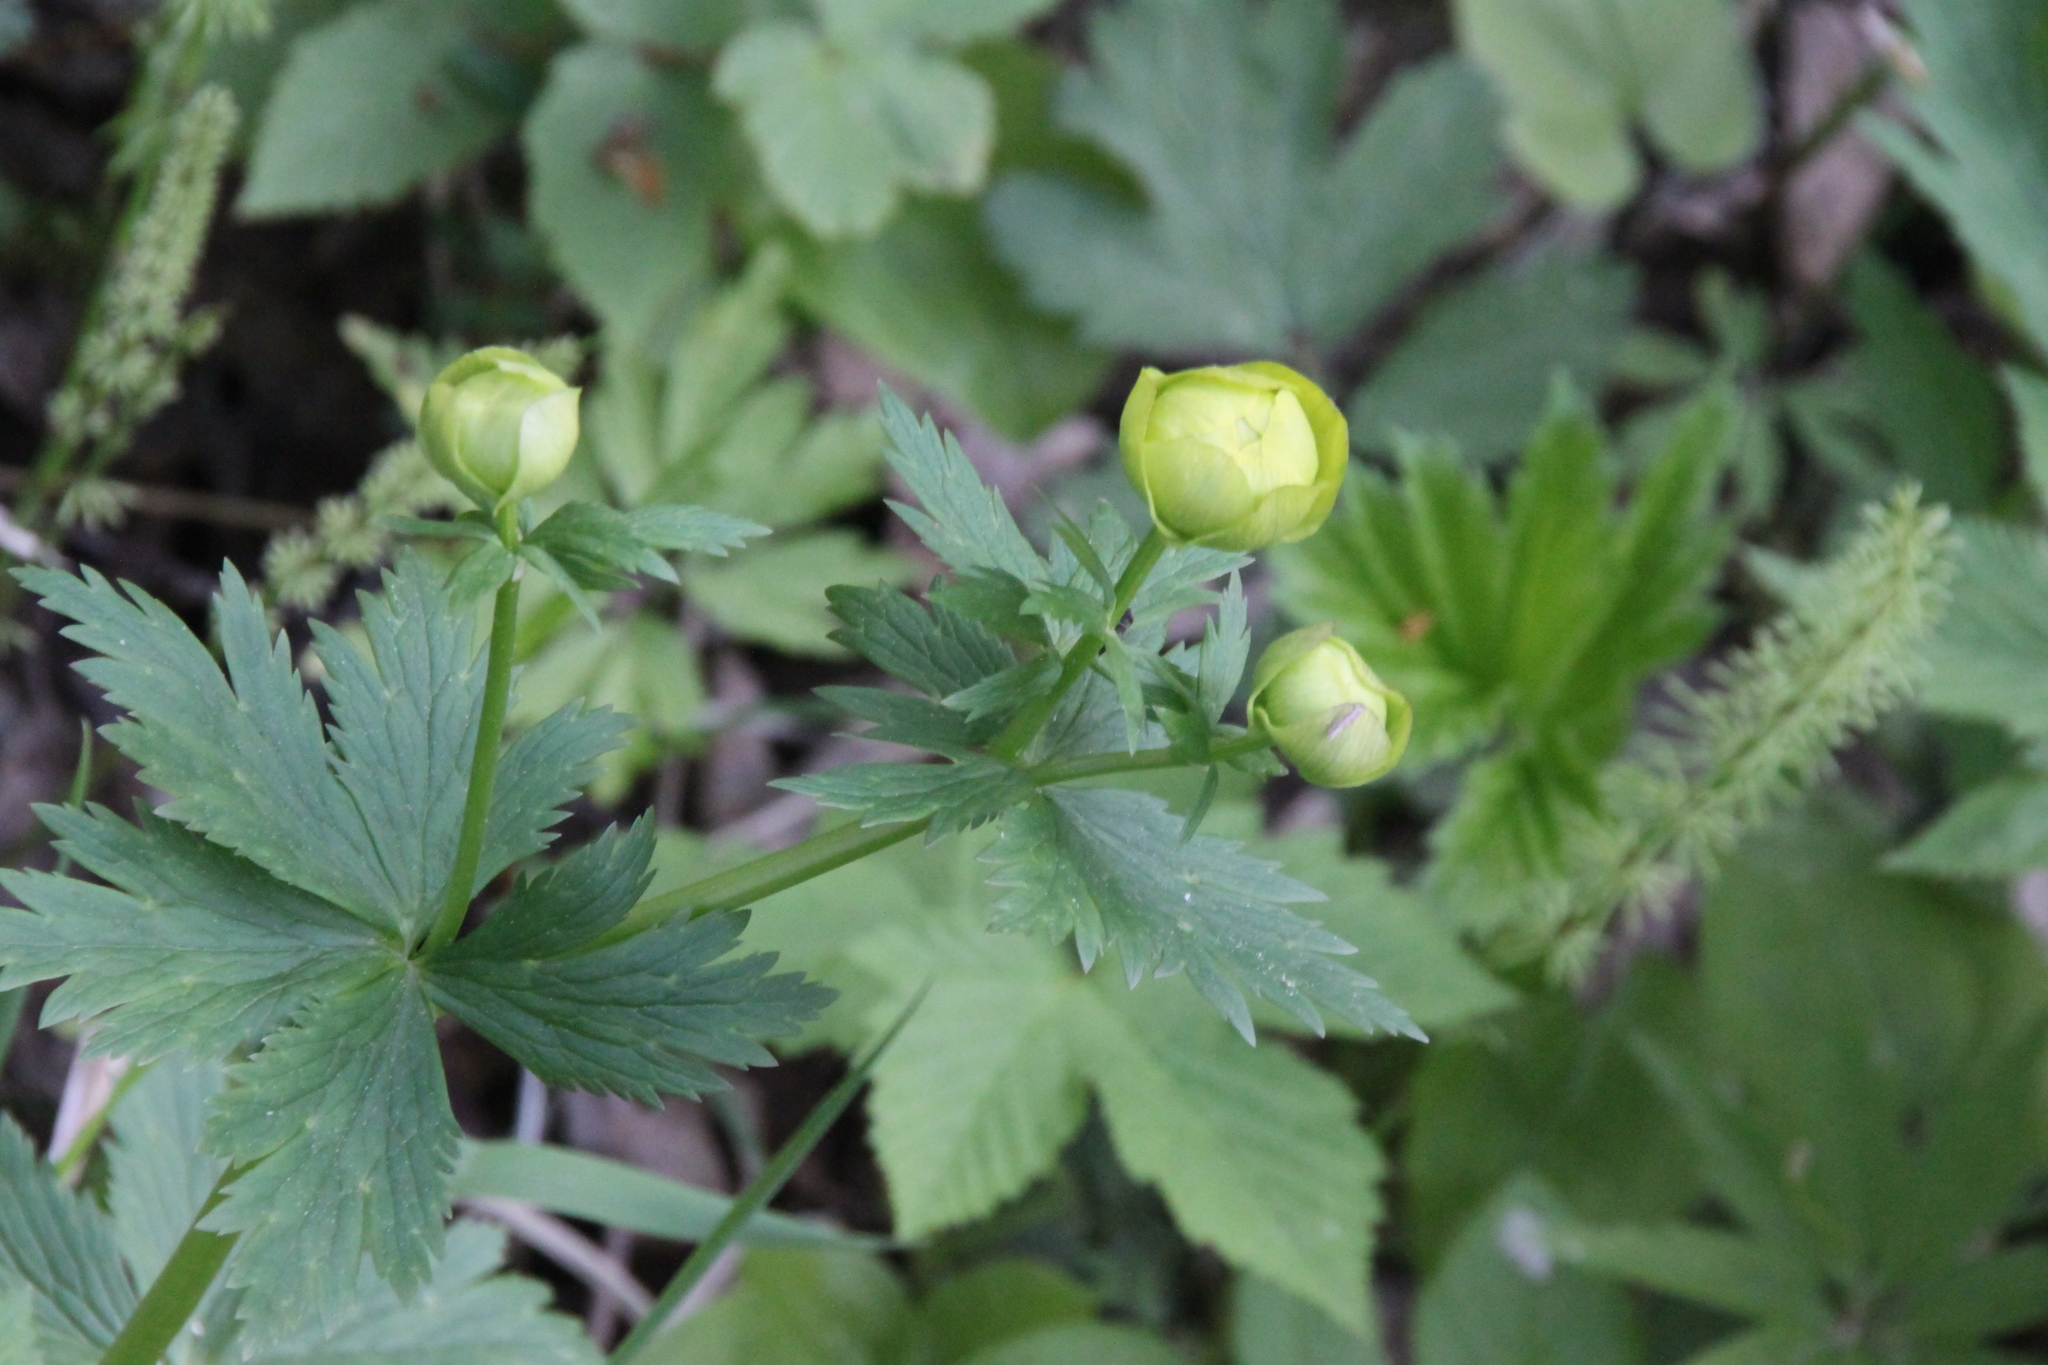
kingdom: Plantae
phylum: Tracheophyta
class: Magnoliopsida
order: Ranunculales
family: Ranunculaceae
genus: Trollius
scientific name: Trollius europaeus
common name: European globeflower
